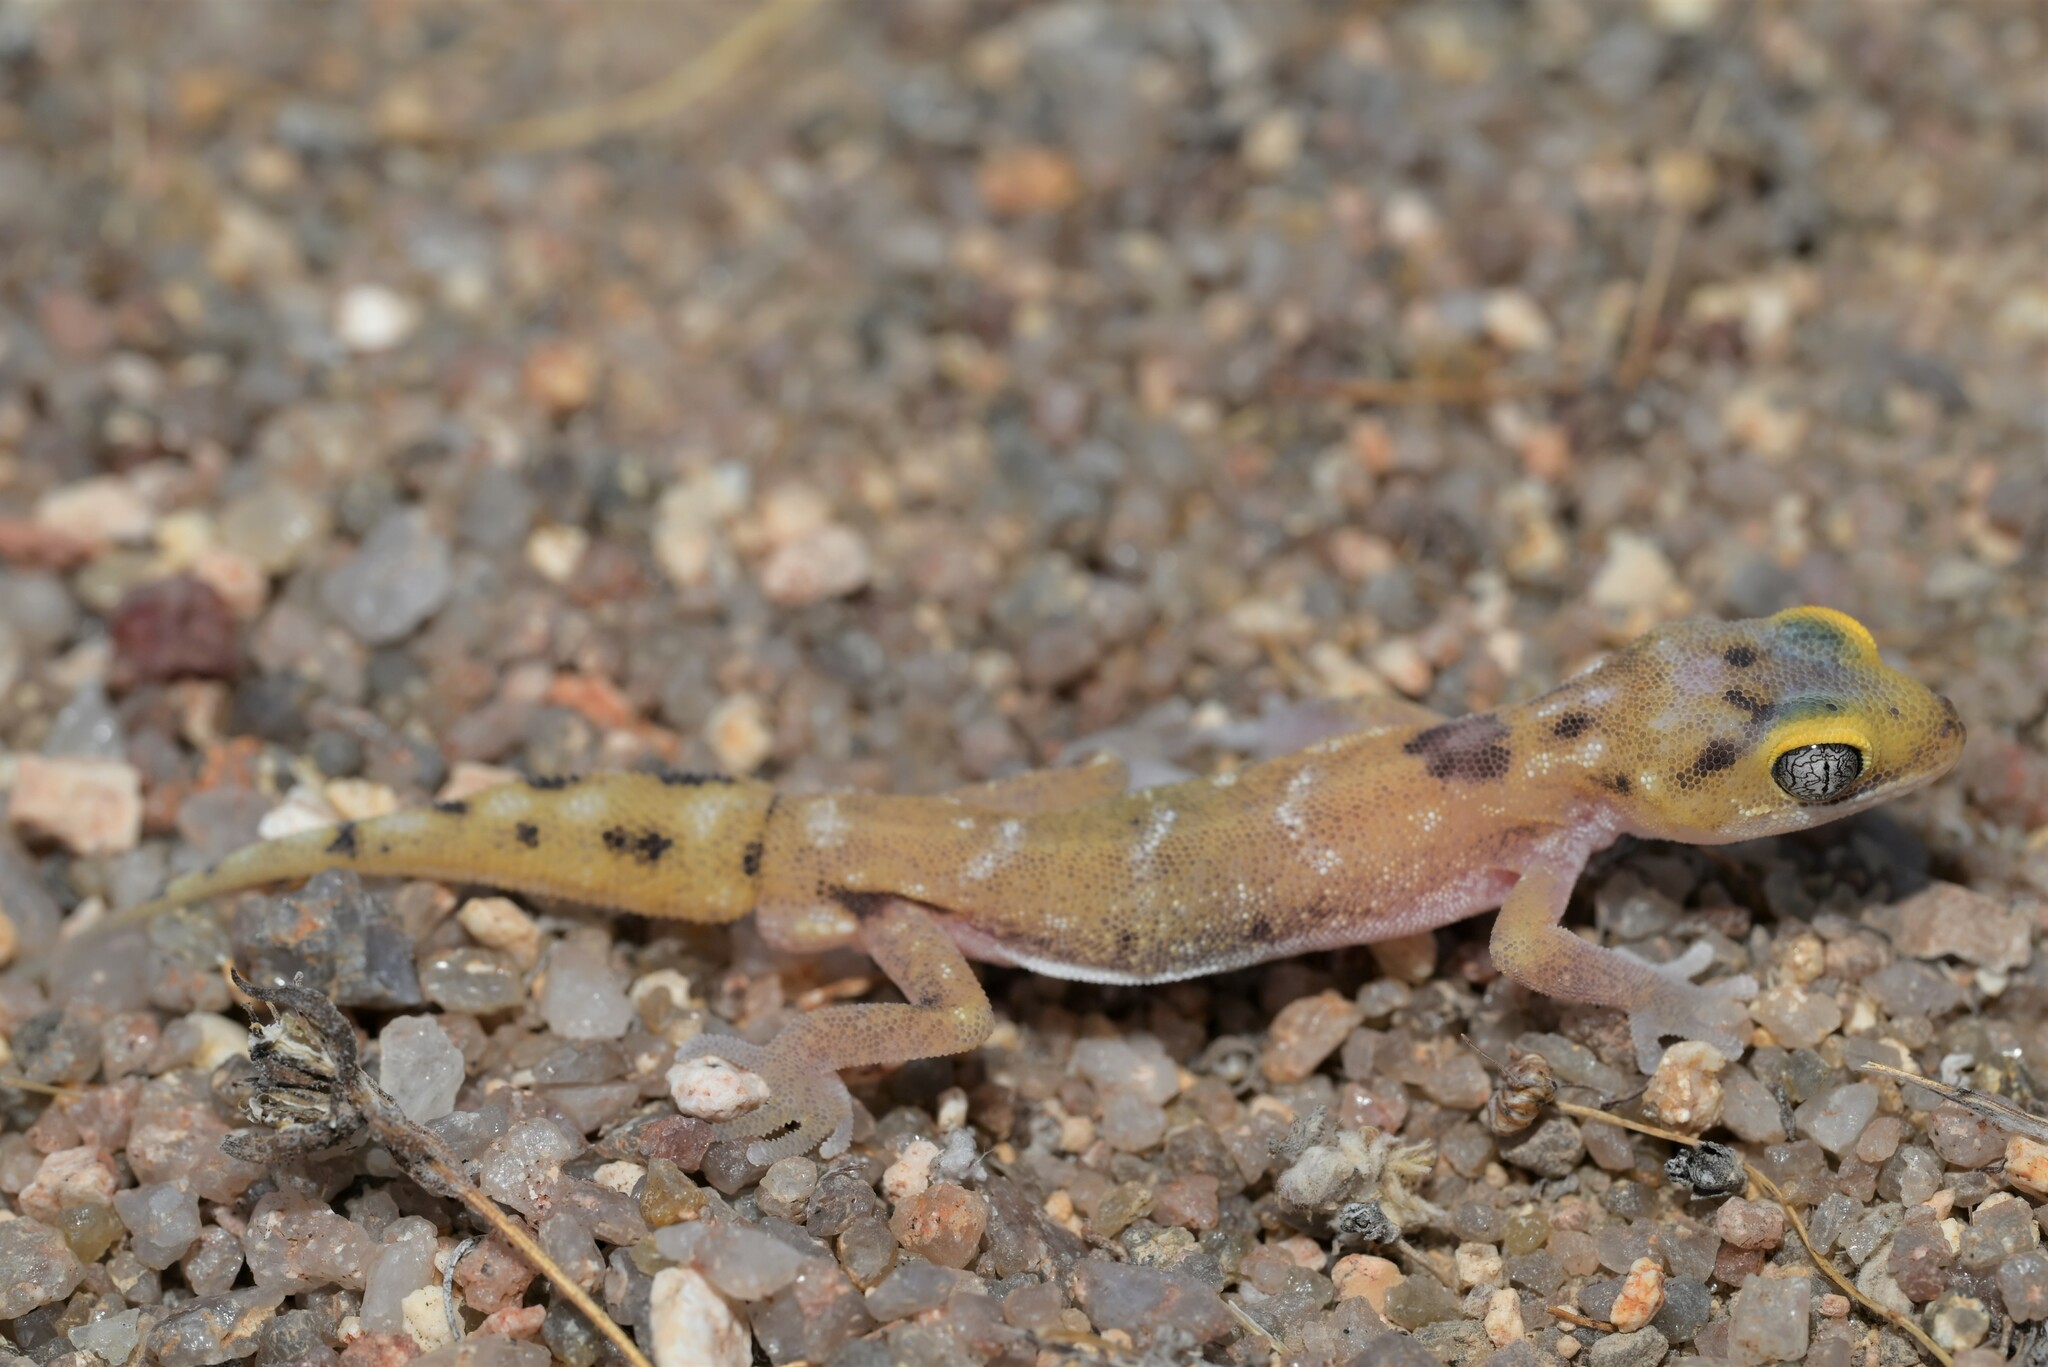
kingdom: Animalia
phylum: Chordata
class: Squamata
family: Gekkonidae
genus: Pachydactylus
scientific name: Pachydactylus austeni
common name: Austen's gecko
